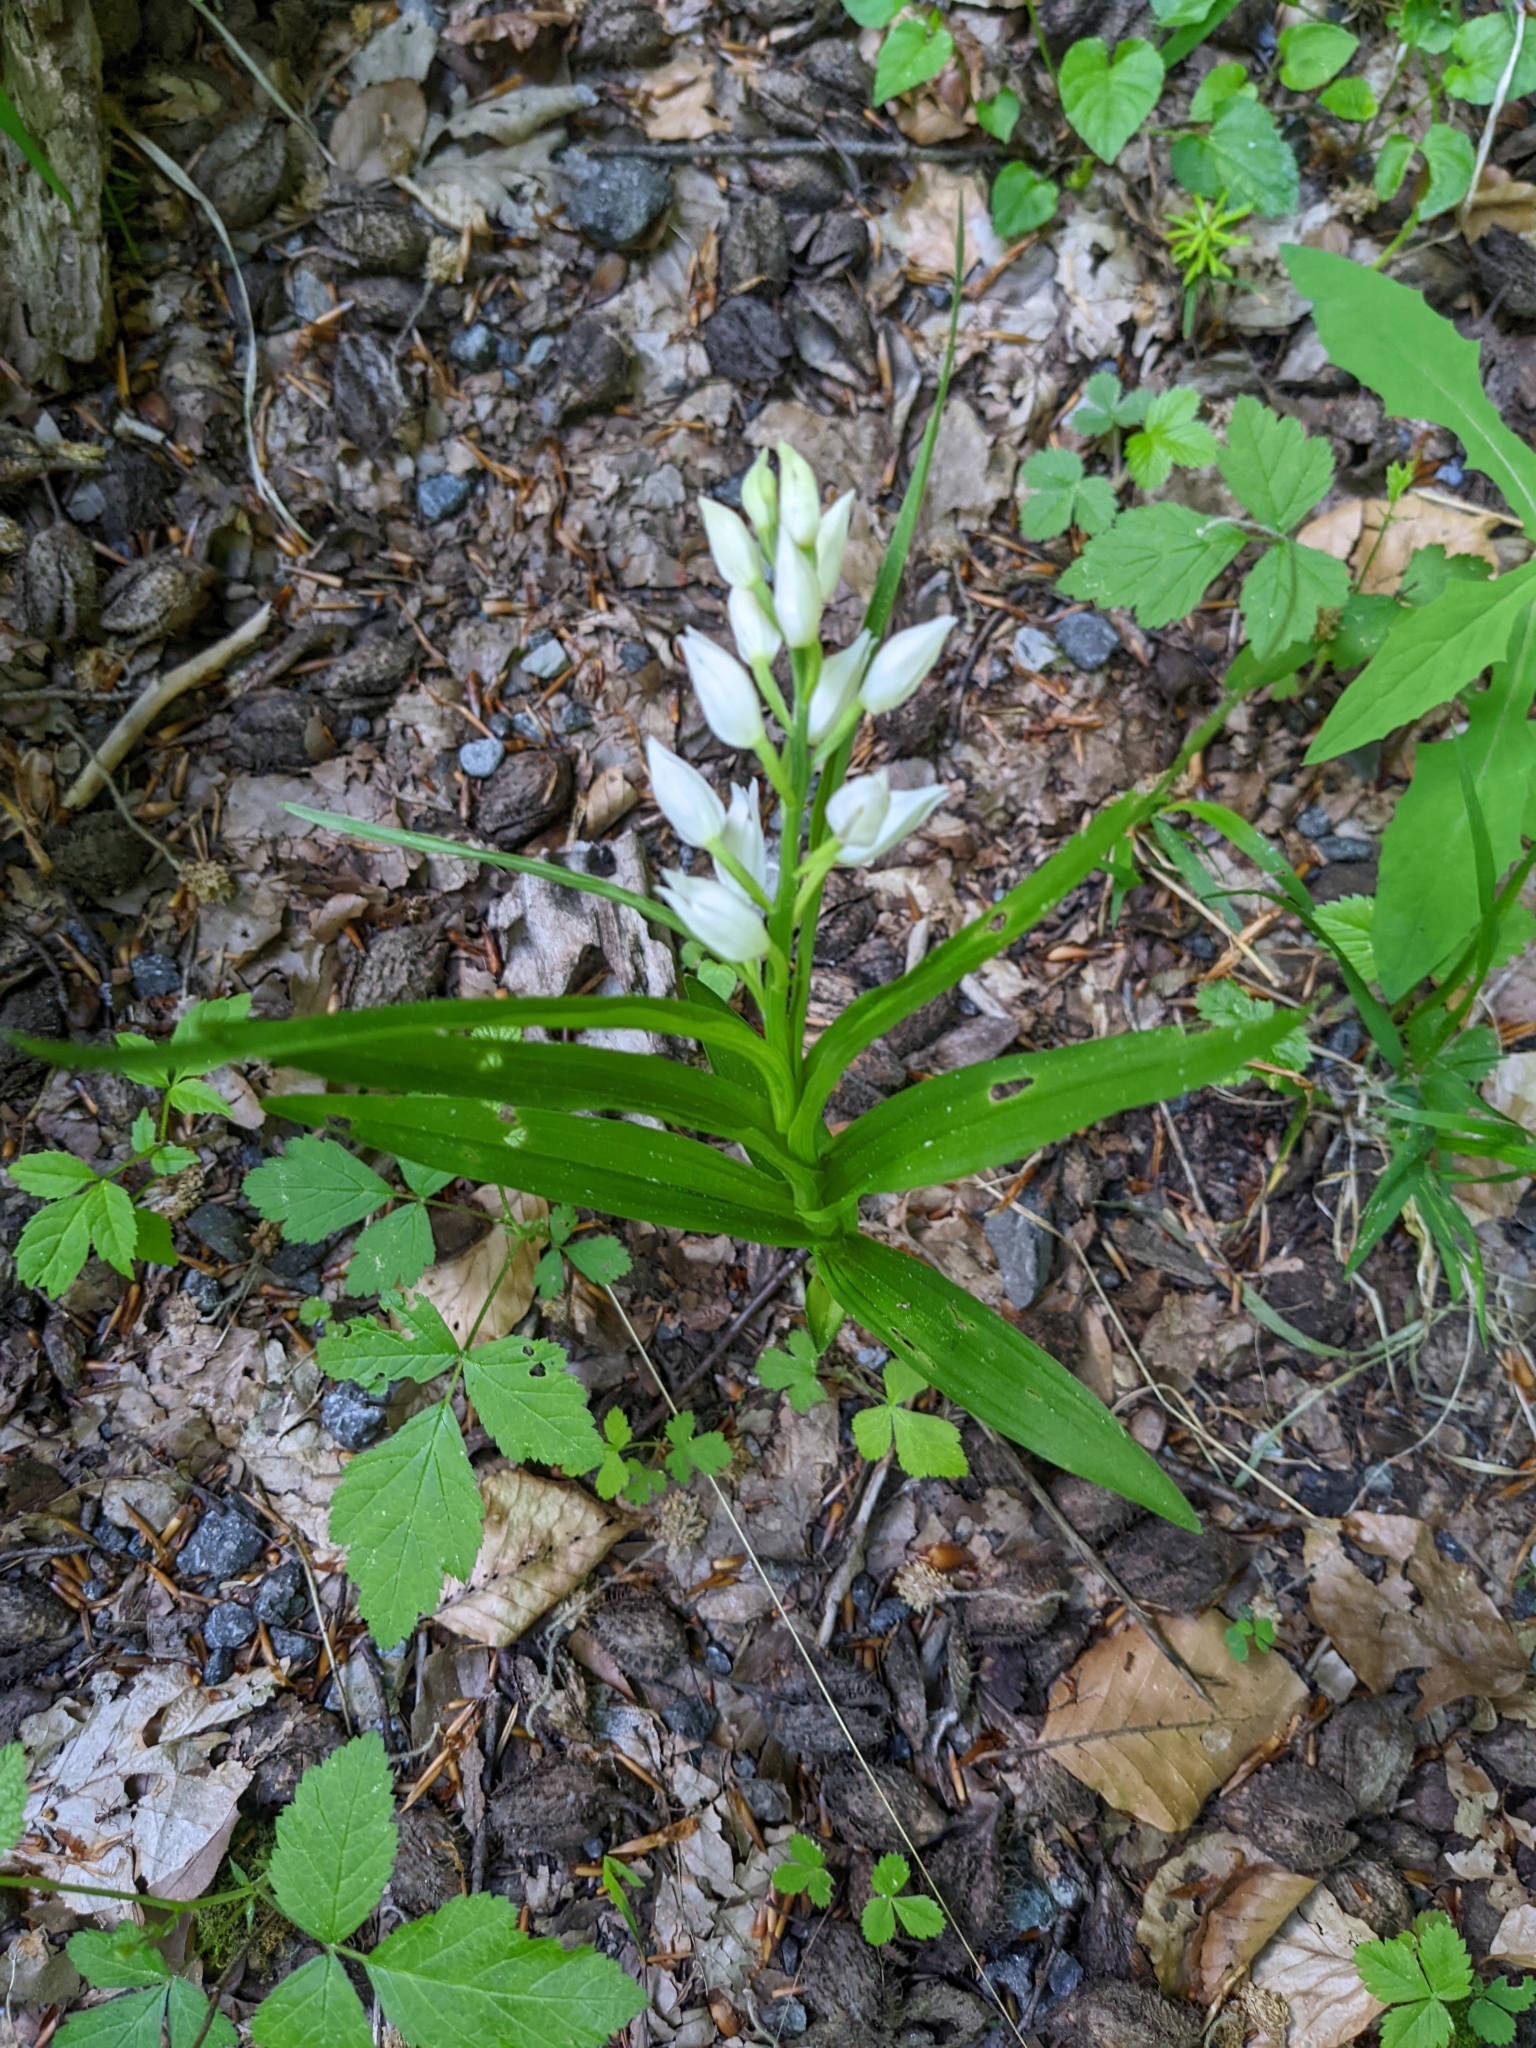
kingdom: Plantae
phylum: Tracheophyta
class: Liliopsida
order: Asparagales
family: Orchidaceae
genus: Cephalanthera
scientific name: Cephalanthera longifolia
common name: Narrow-leaved helleborine
